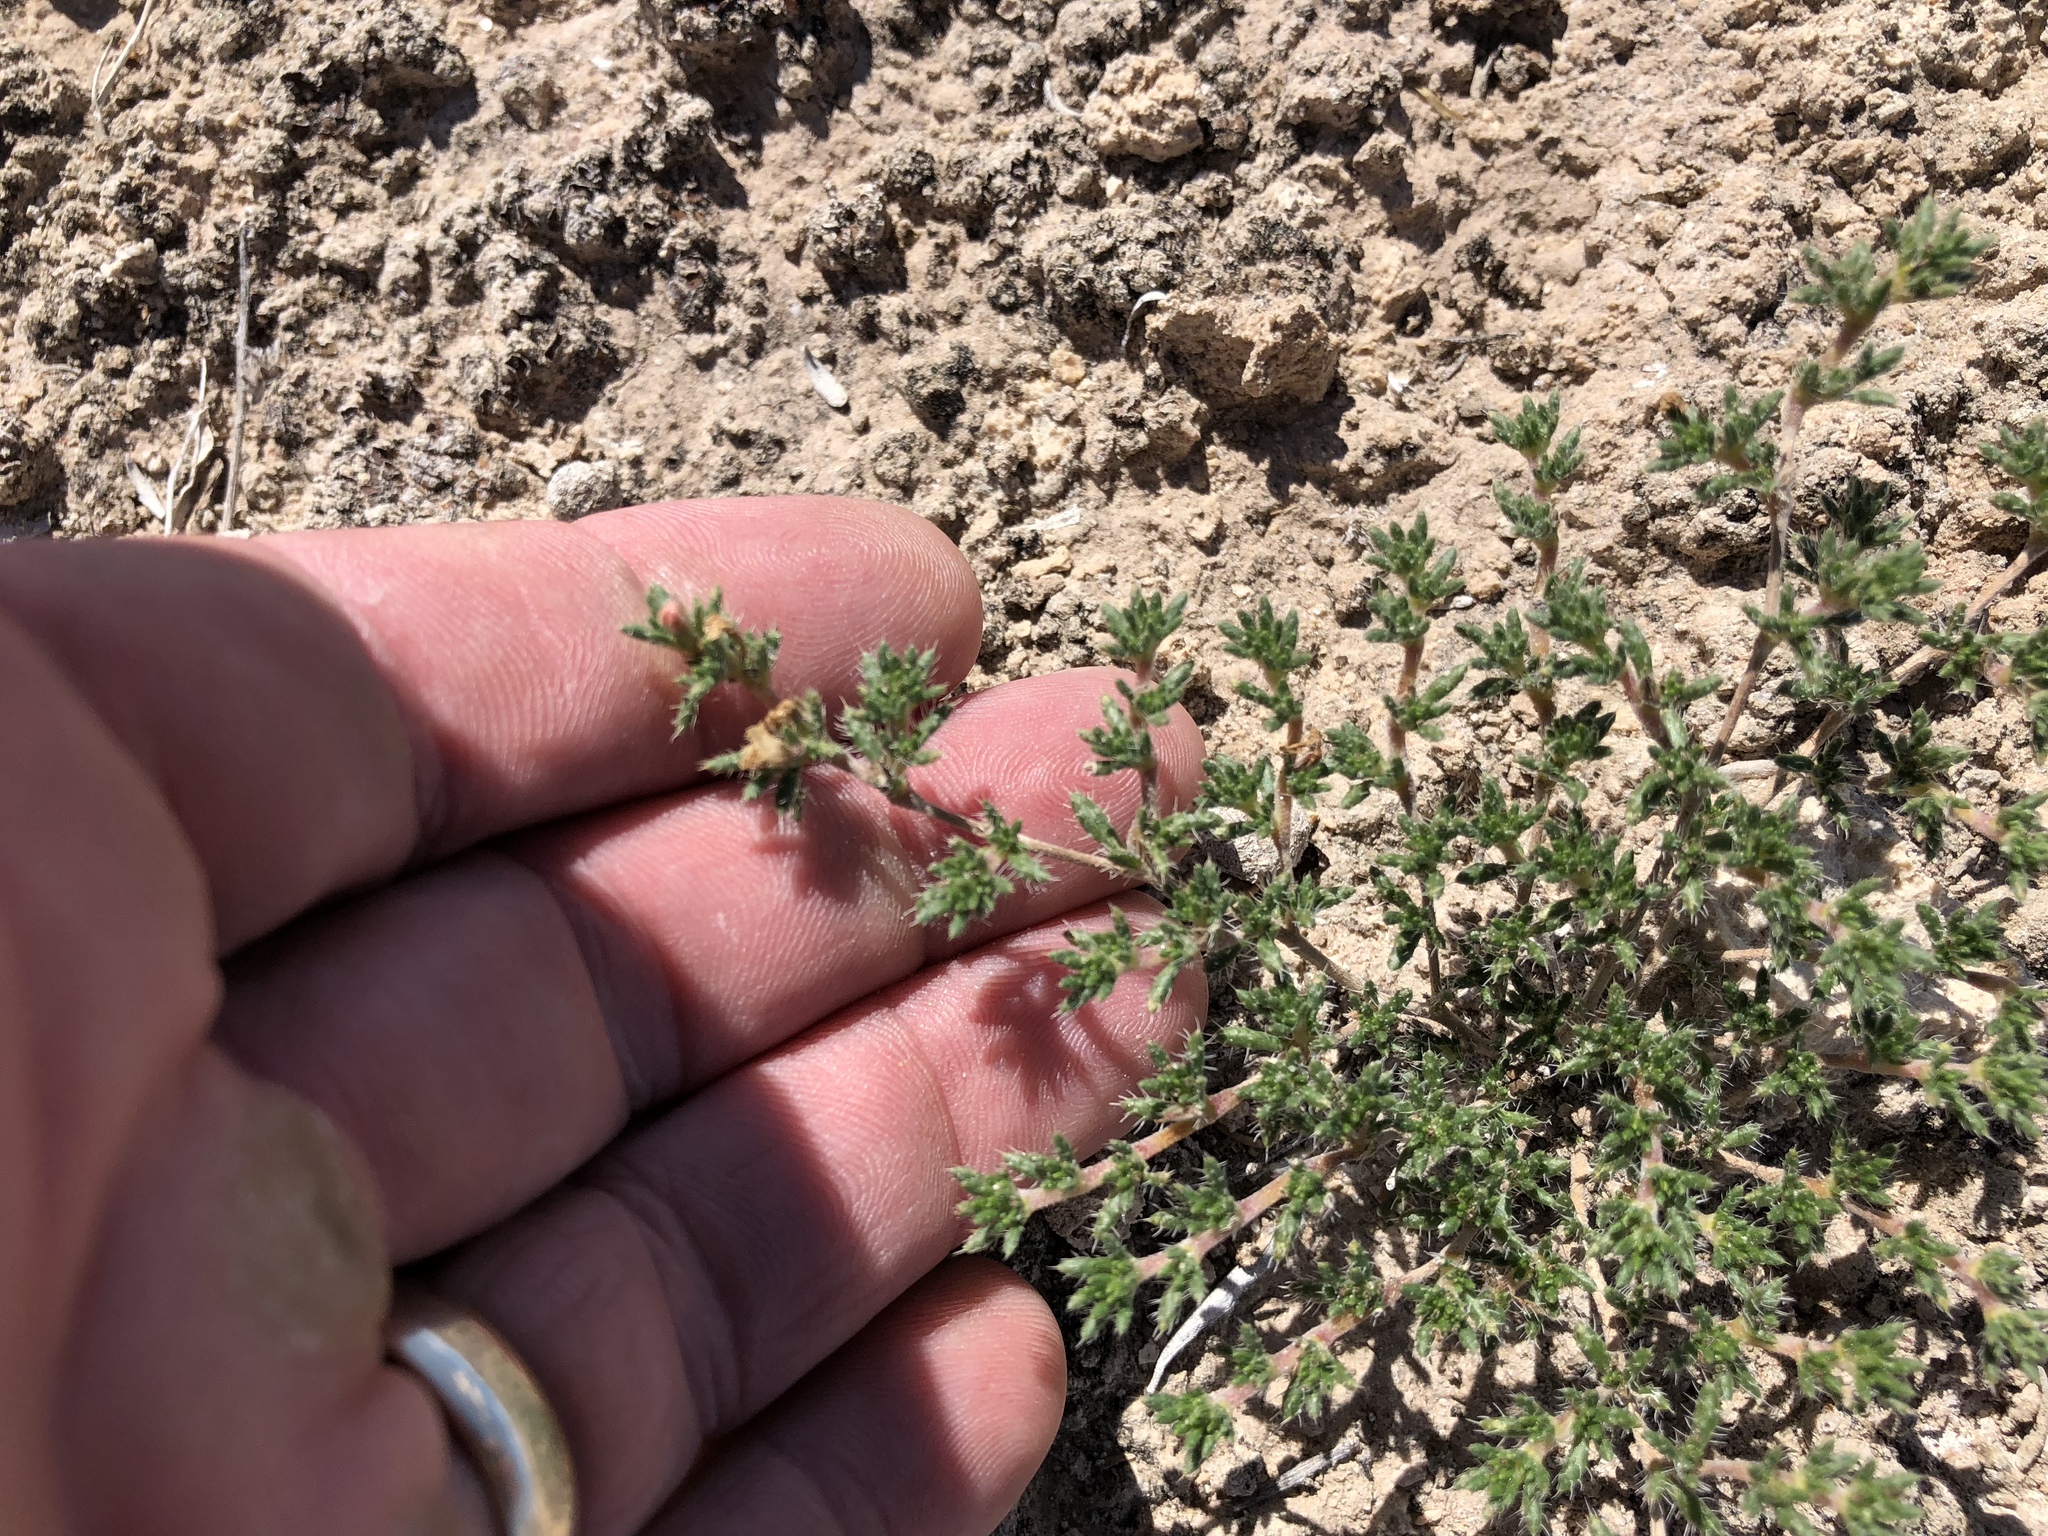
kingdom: Plantae
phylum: Tracheophyta
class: Magnoliopsida
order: Boraginales
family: Ehretiaceae
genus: Tiquilia
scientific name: Tiquilia hispidissima
